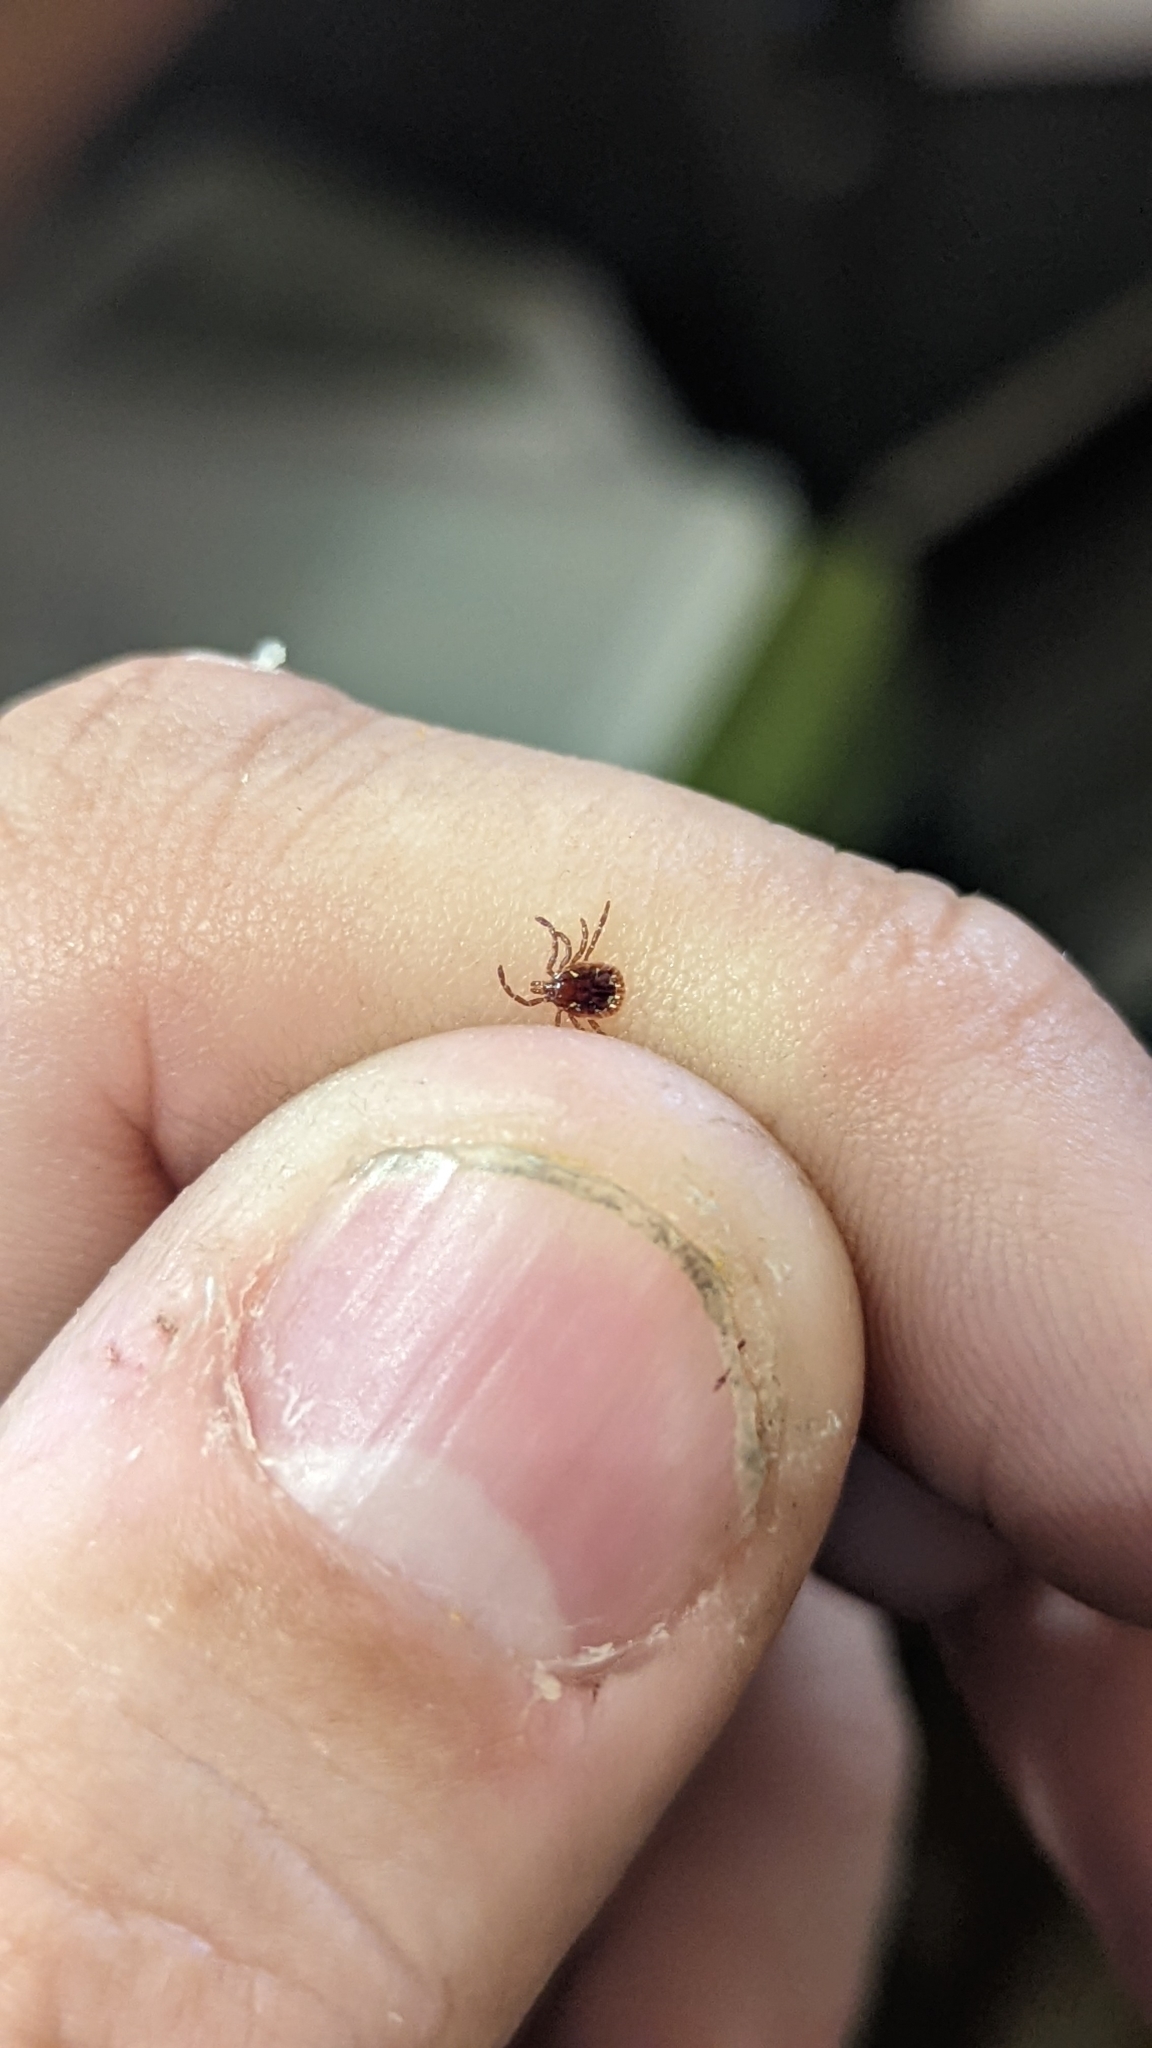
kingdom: Animalia
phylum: Arthropoda
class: Arachnida
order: Ixodida
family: Ixodidae
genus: Amblyomma
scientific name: Amblyomma americanum
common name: Lone star tick
